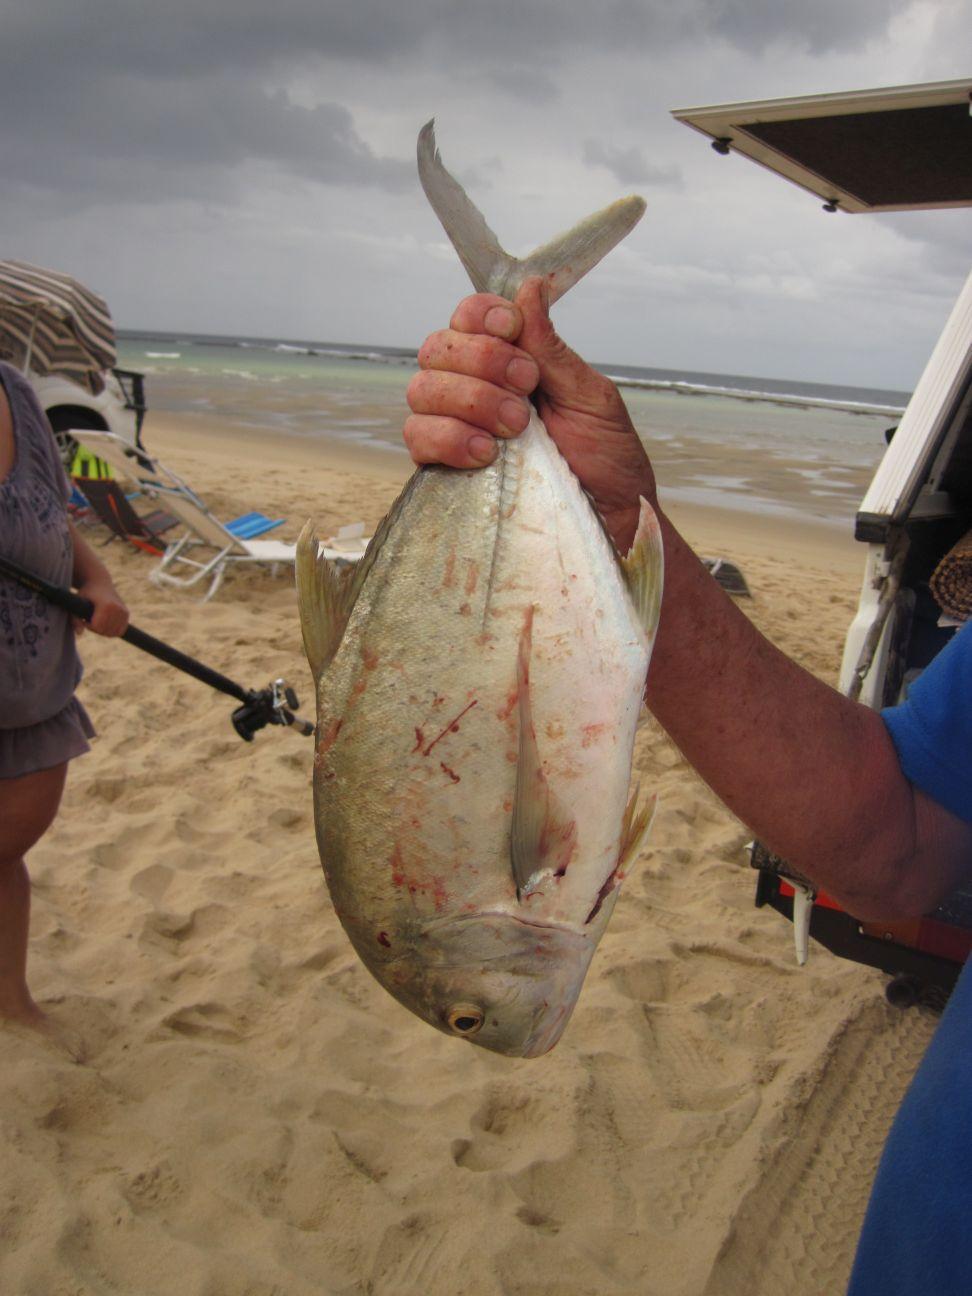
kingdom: Animalia
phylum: Chordata
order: Perciformes
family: Carangidae
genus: Caranx
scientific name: Caranx papuensis
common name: Brassy trevally
